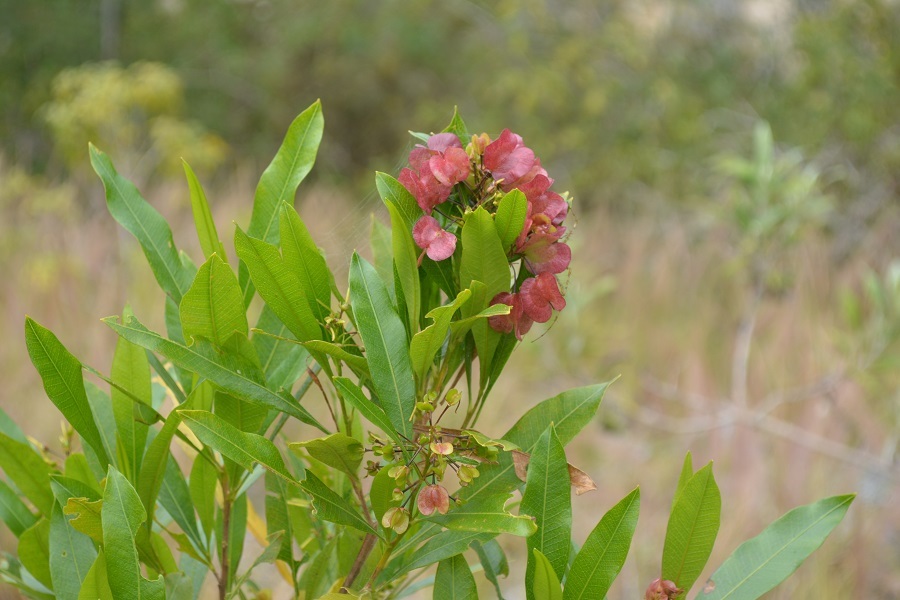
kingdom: Plantae
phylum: Tracheophyta
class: Magnoliopsida
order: Sapindales
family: Sapindaceae
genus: Dodonaea
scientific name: Dodonaea viscosa
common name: Hopbush
